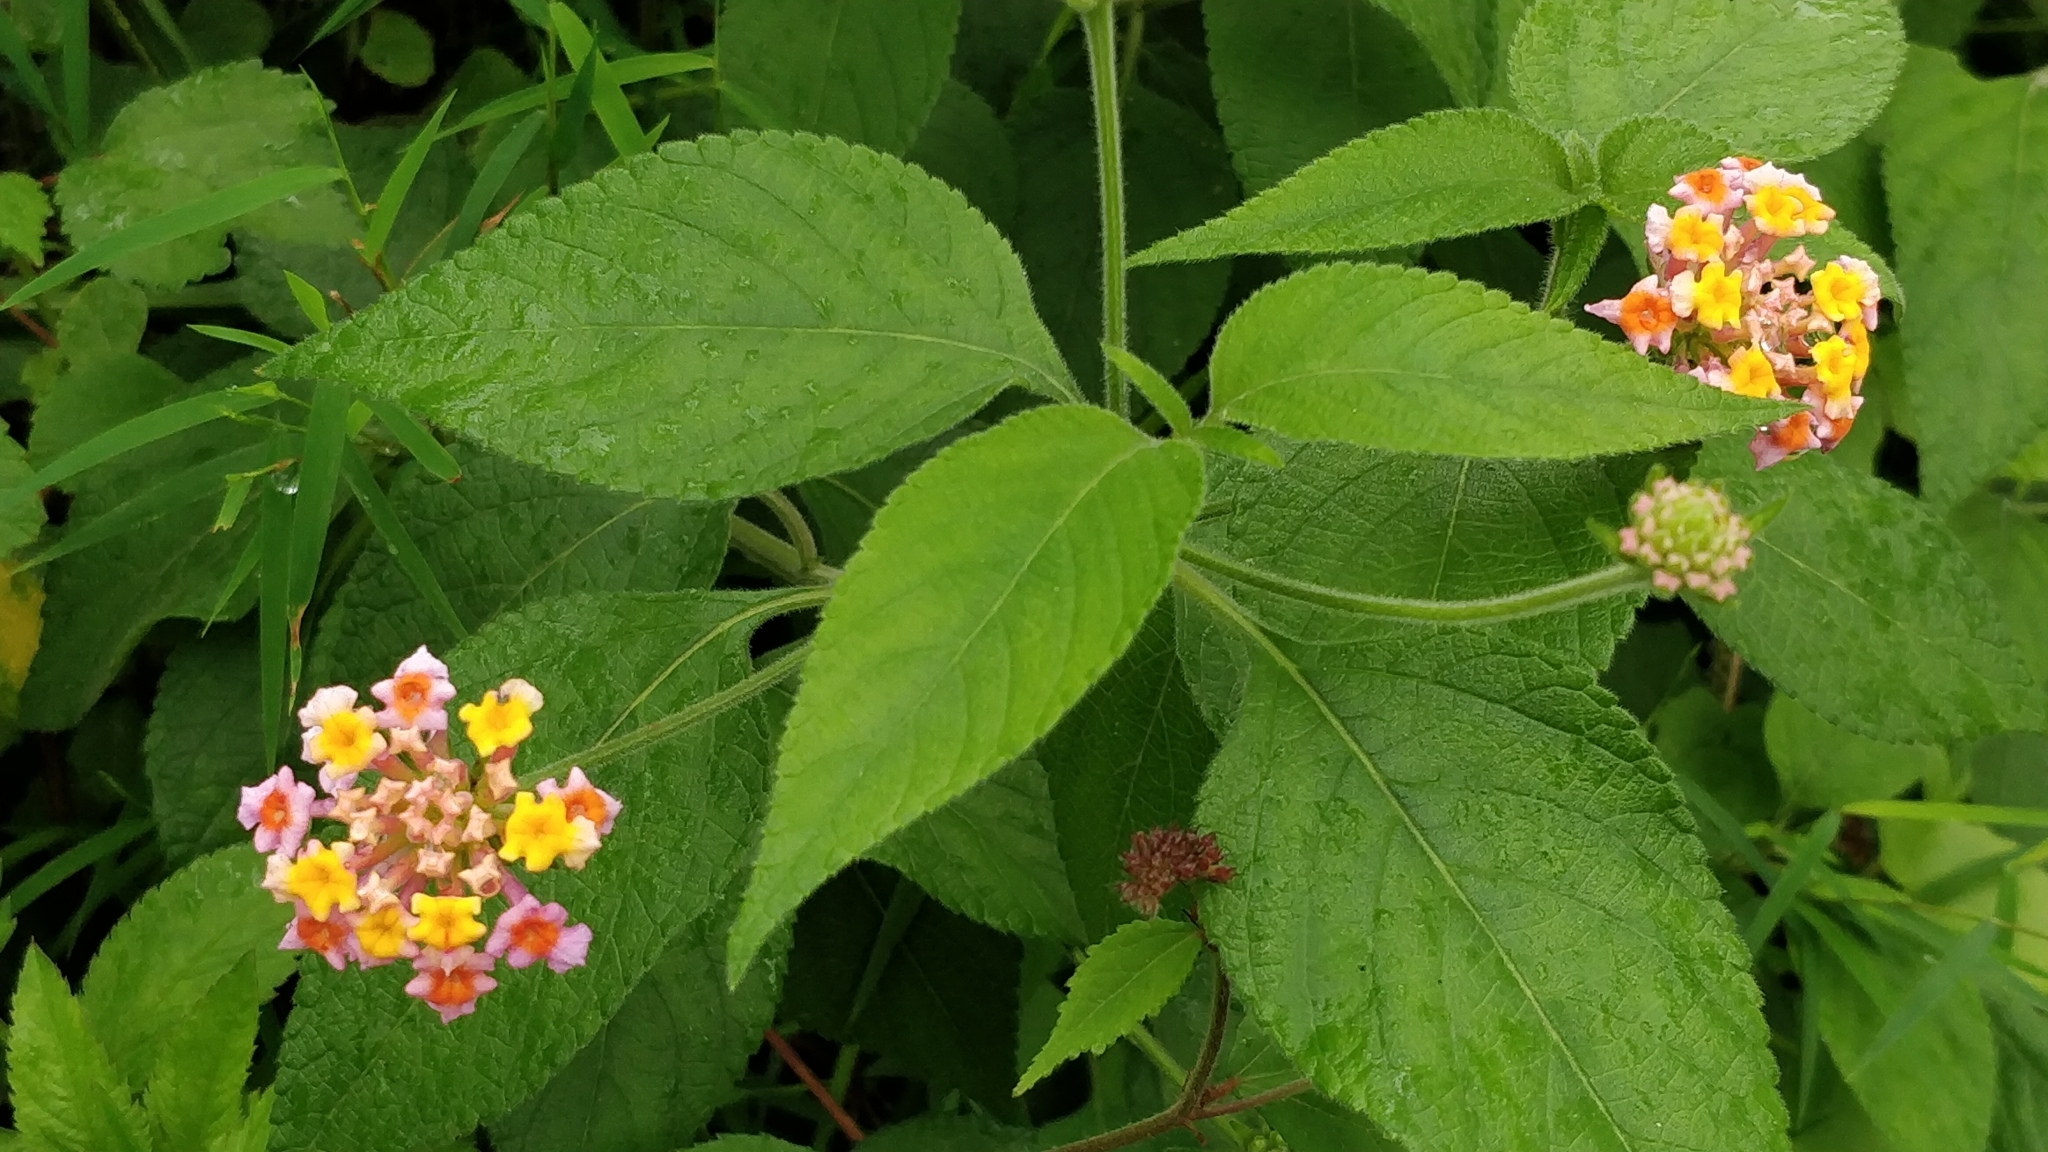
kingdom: Plantae
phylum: Tracheophyta
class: Magnoliopsida
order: Lamiales
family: Verbenaceae
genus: Lantana
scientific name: Lantana camara
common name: Lantana
